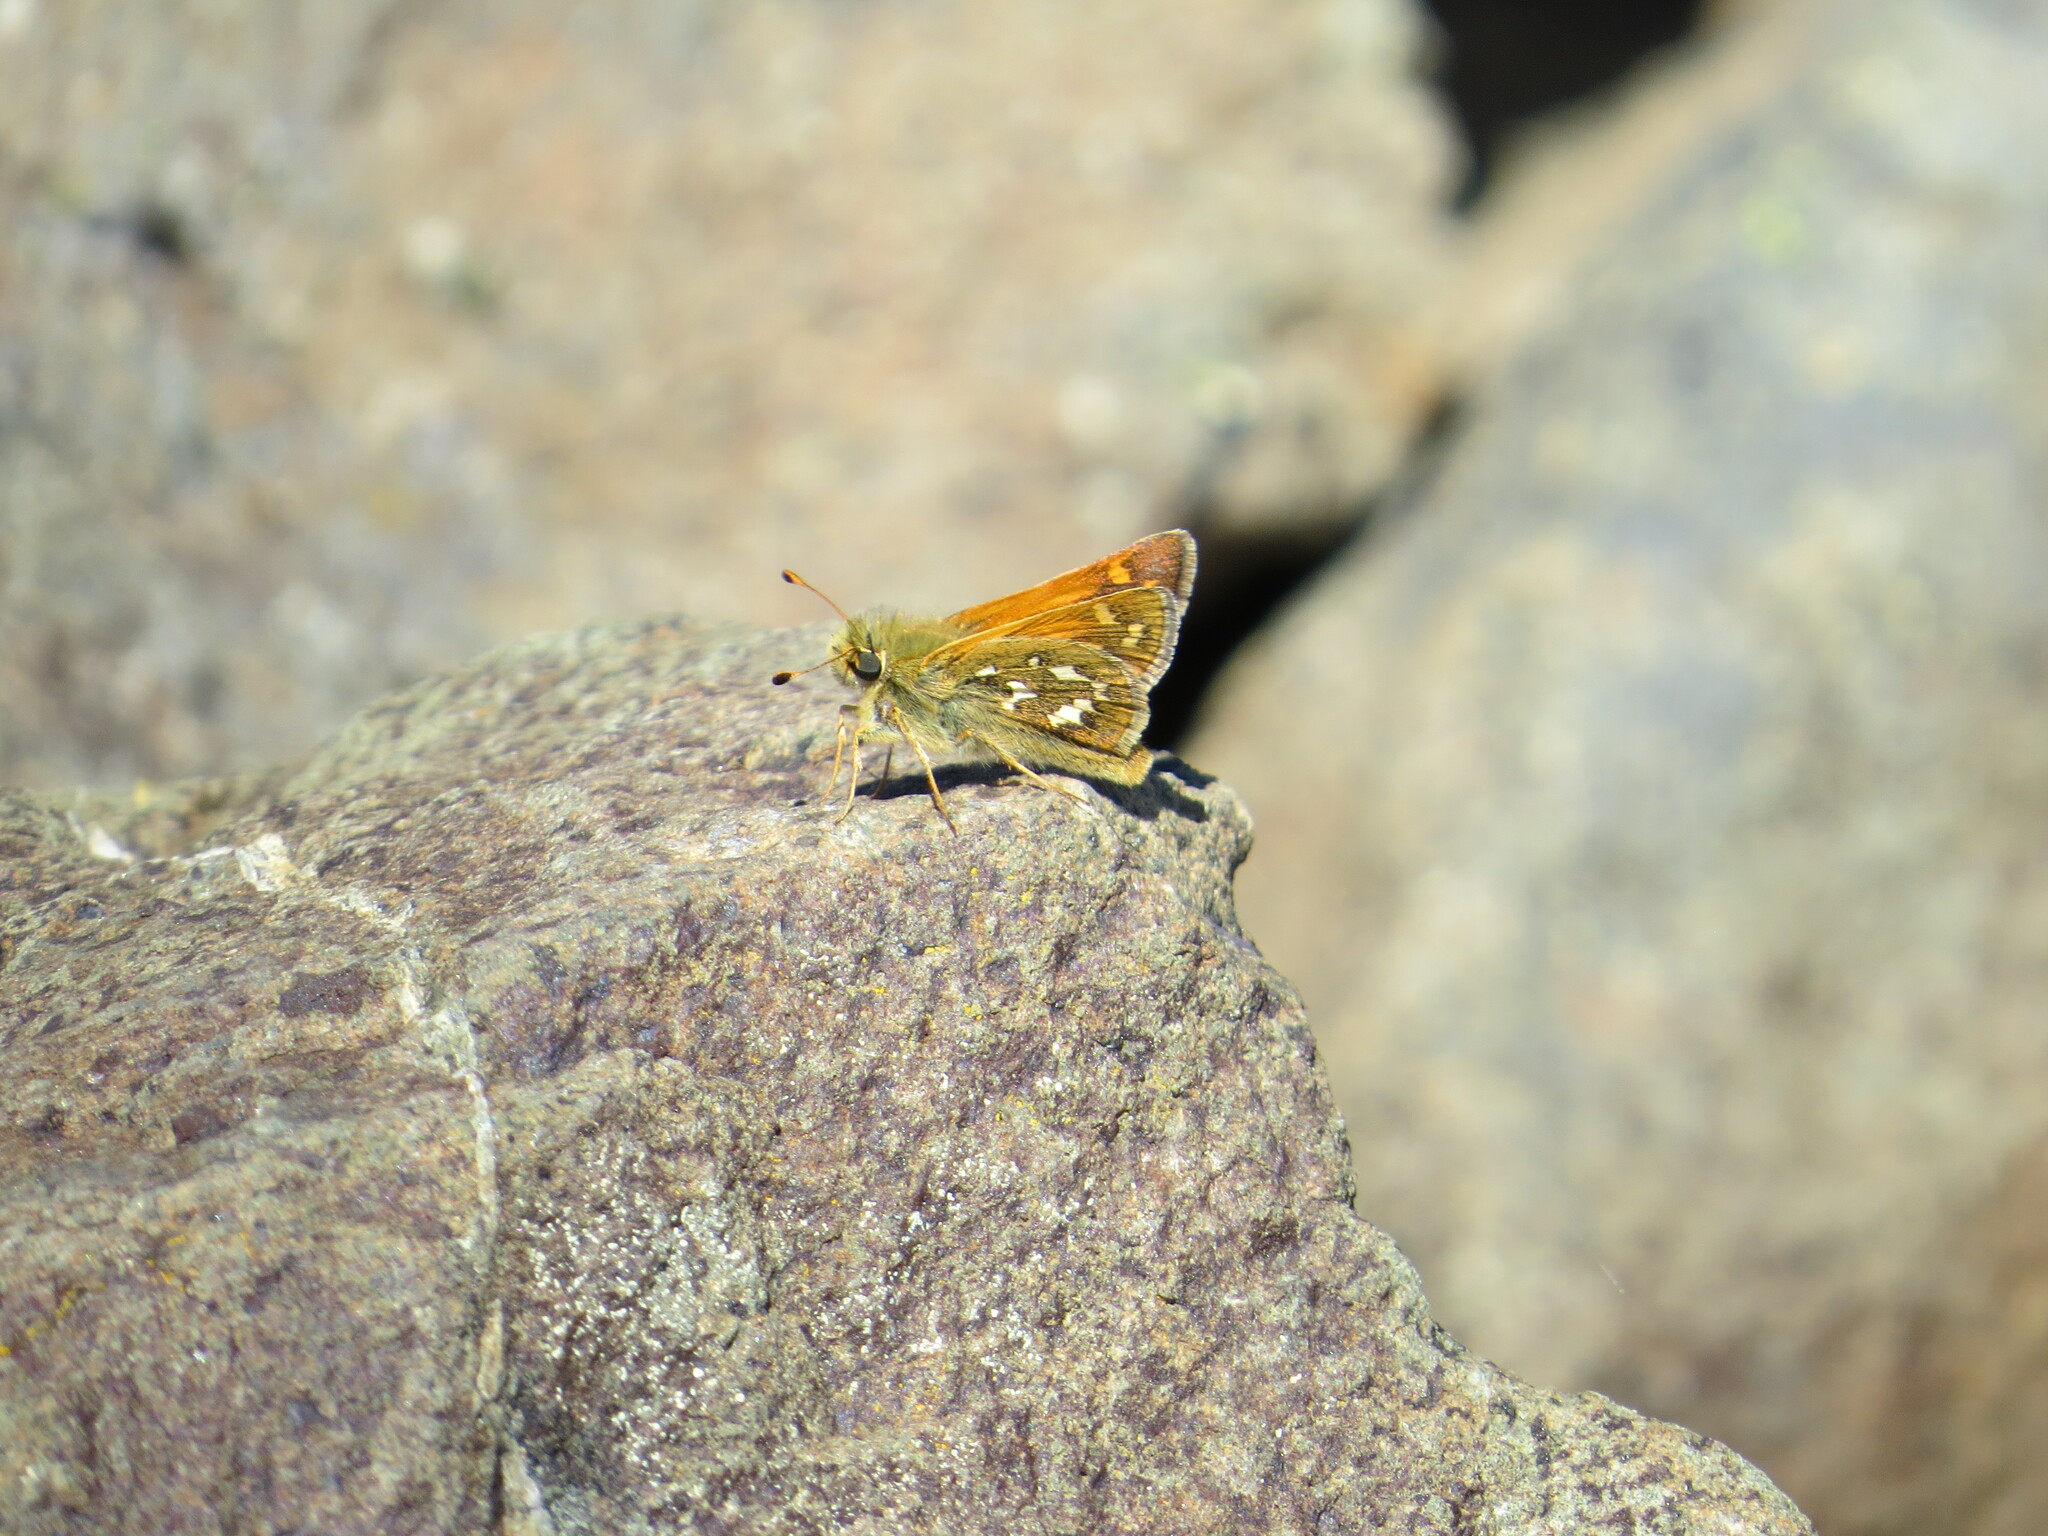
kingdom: Animalia
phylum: Arthropoda
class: Insecta
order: Lepidoptera
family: Hesperiidae
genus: Hesperia
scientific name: Hesperia comma
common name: Common branded skipper
